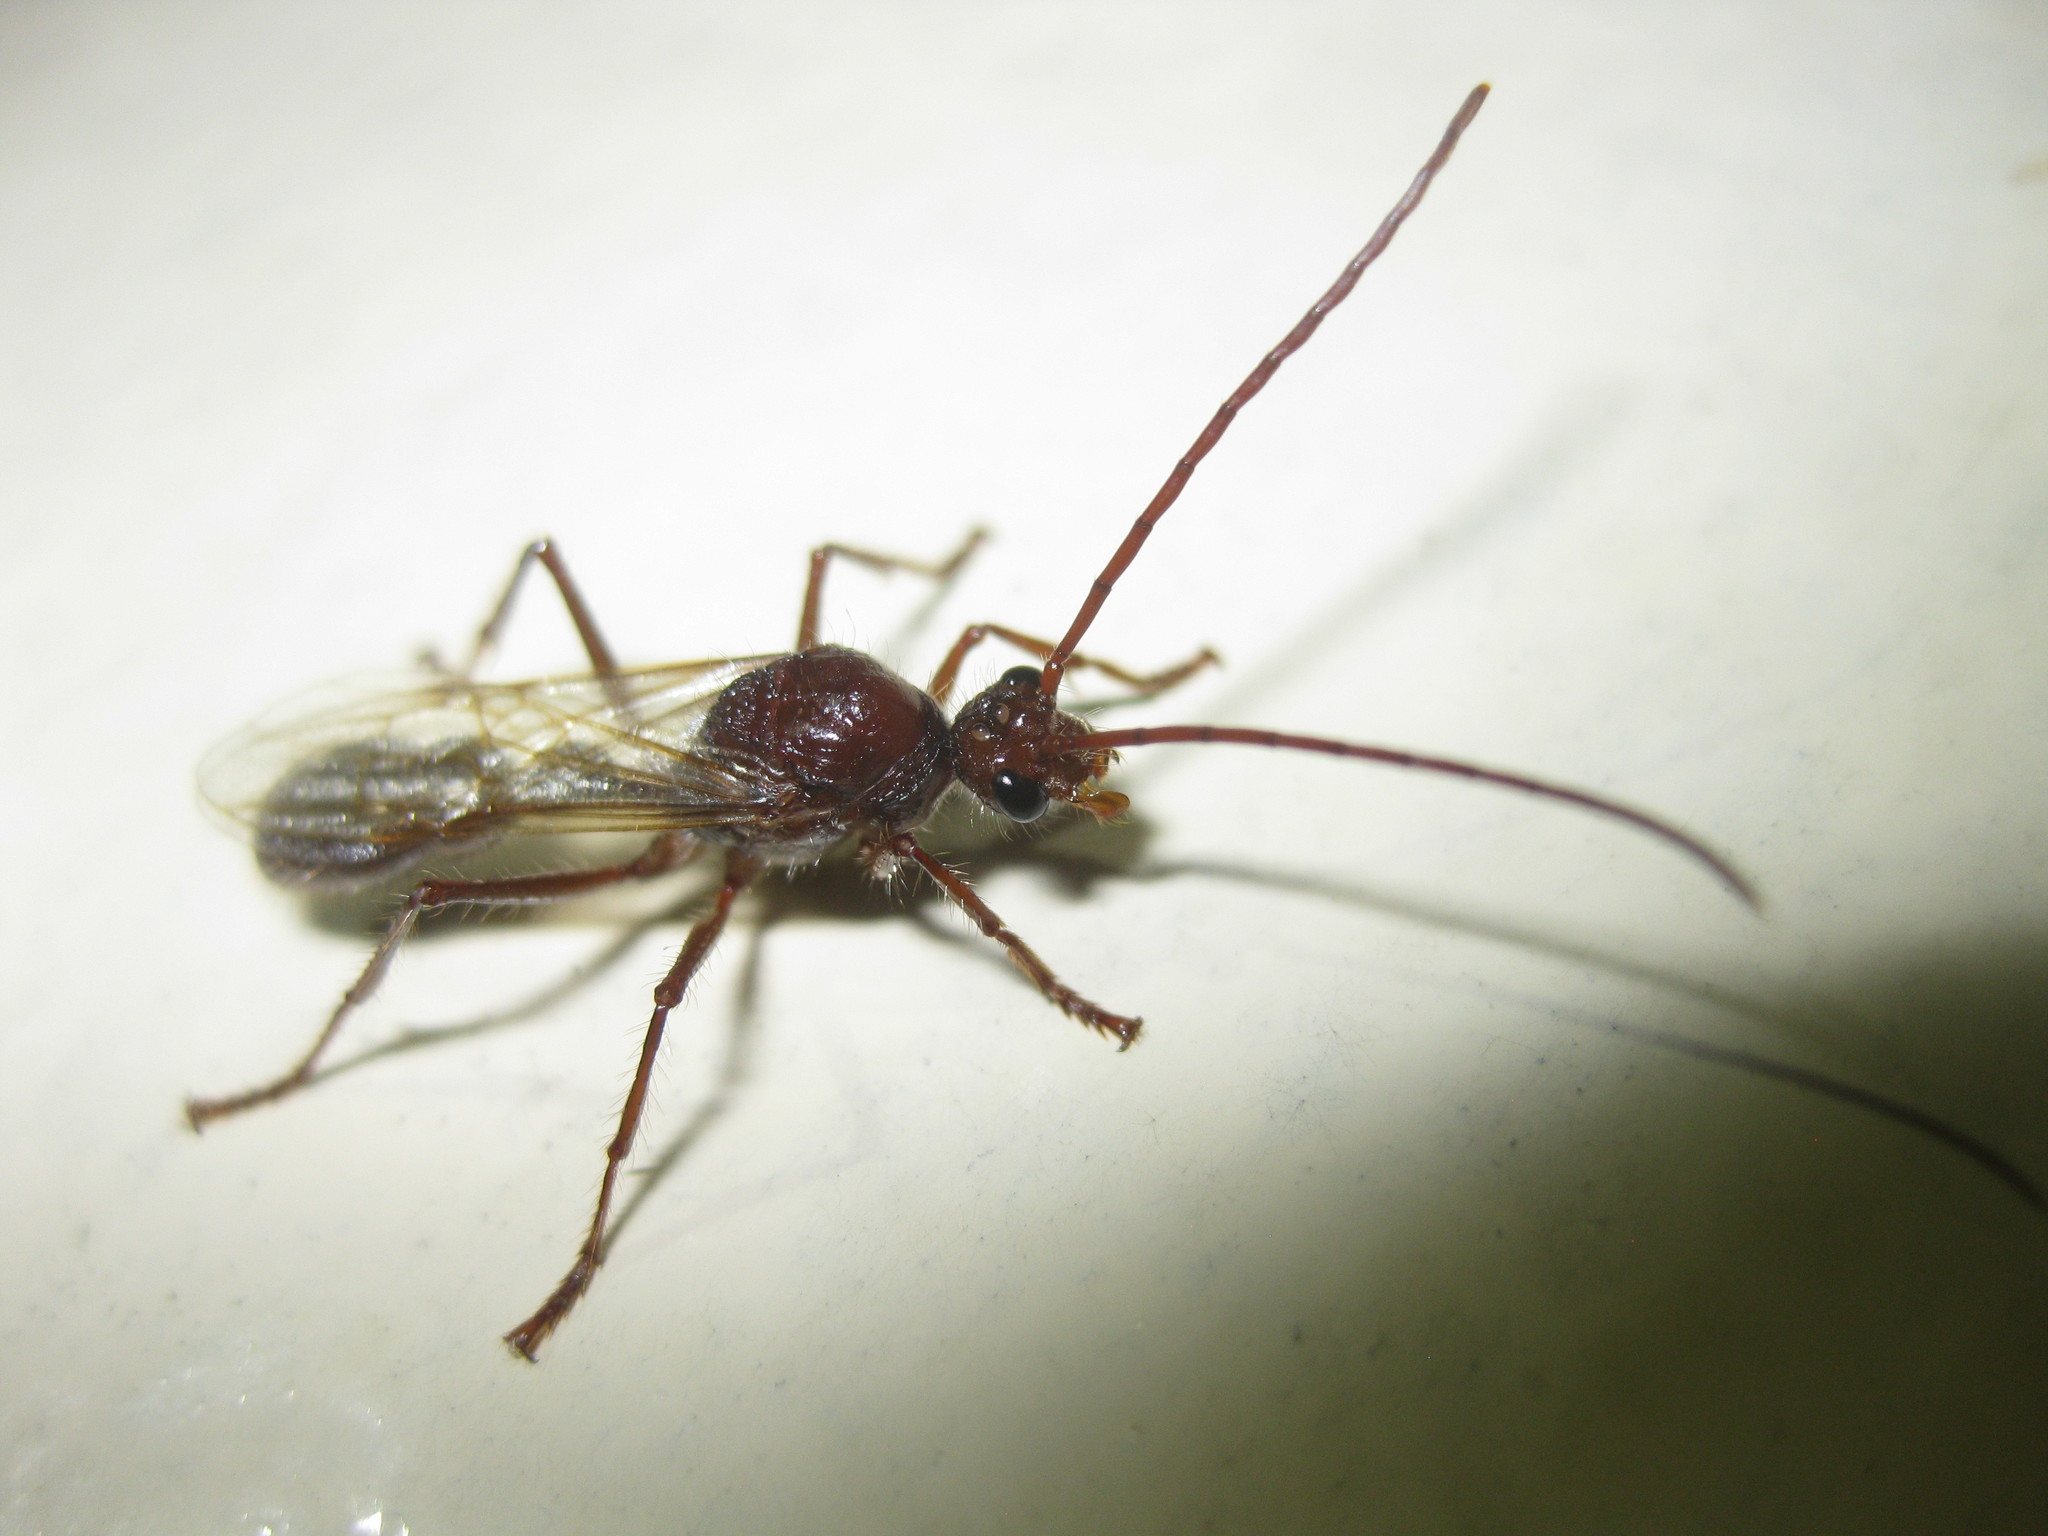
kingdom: Animalia
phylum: Arthropoda
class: Insecta
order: Hymenoptera
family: Formicidae
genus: Paraponera
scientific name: Paraponera clavata
